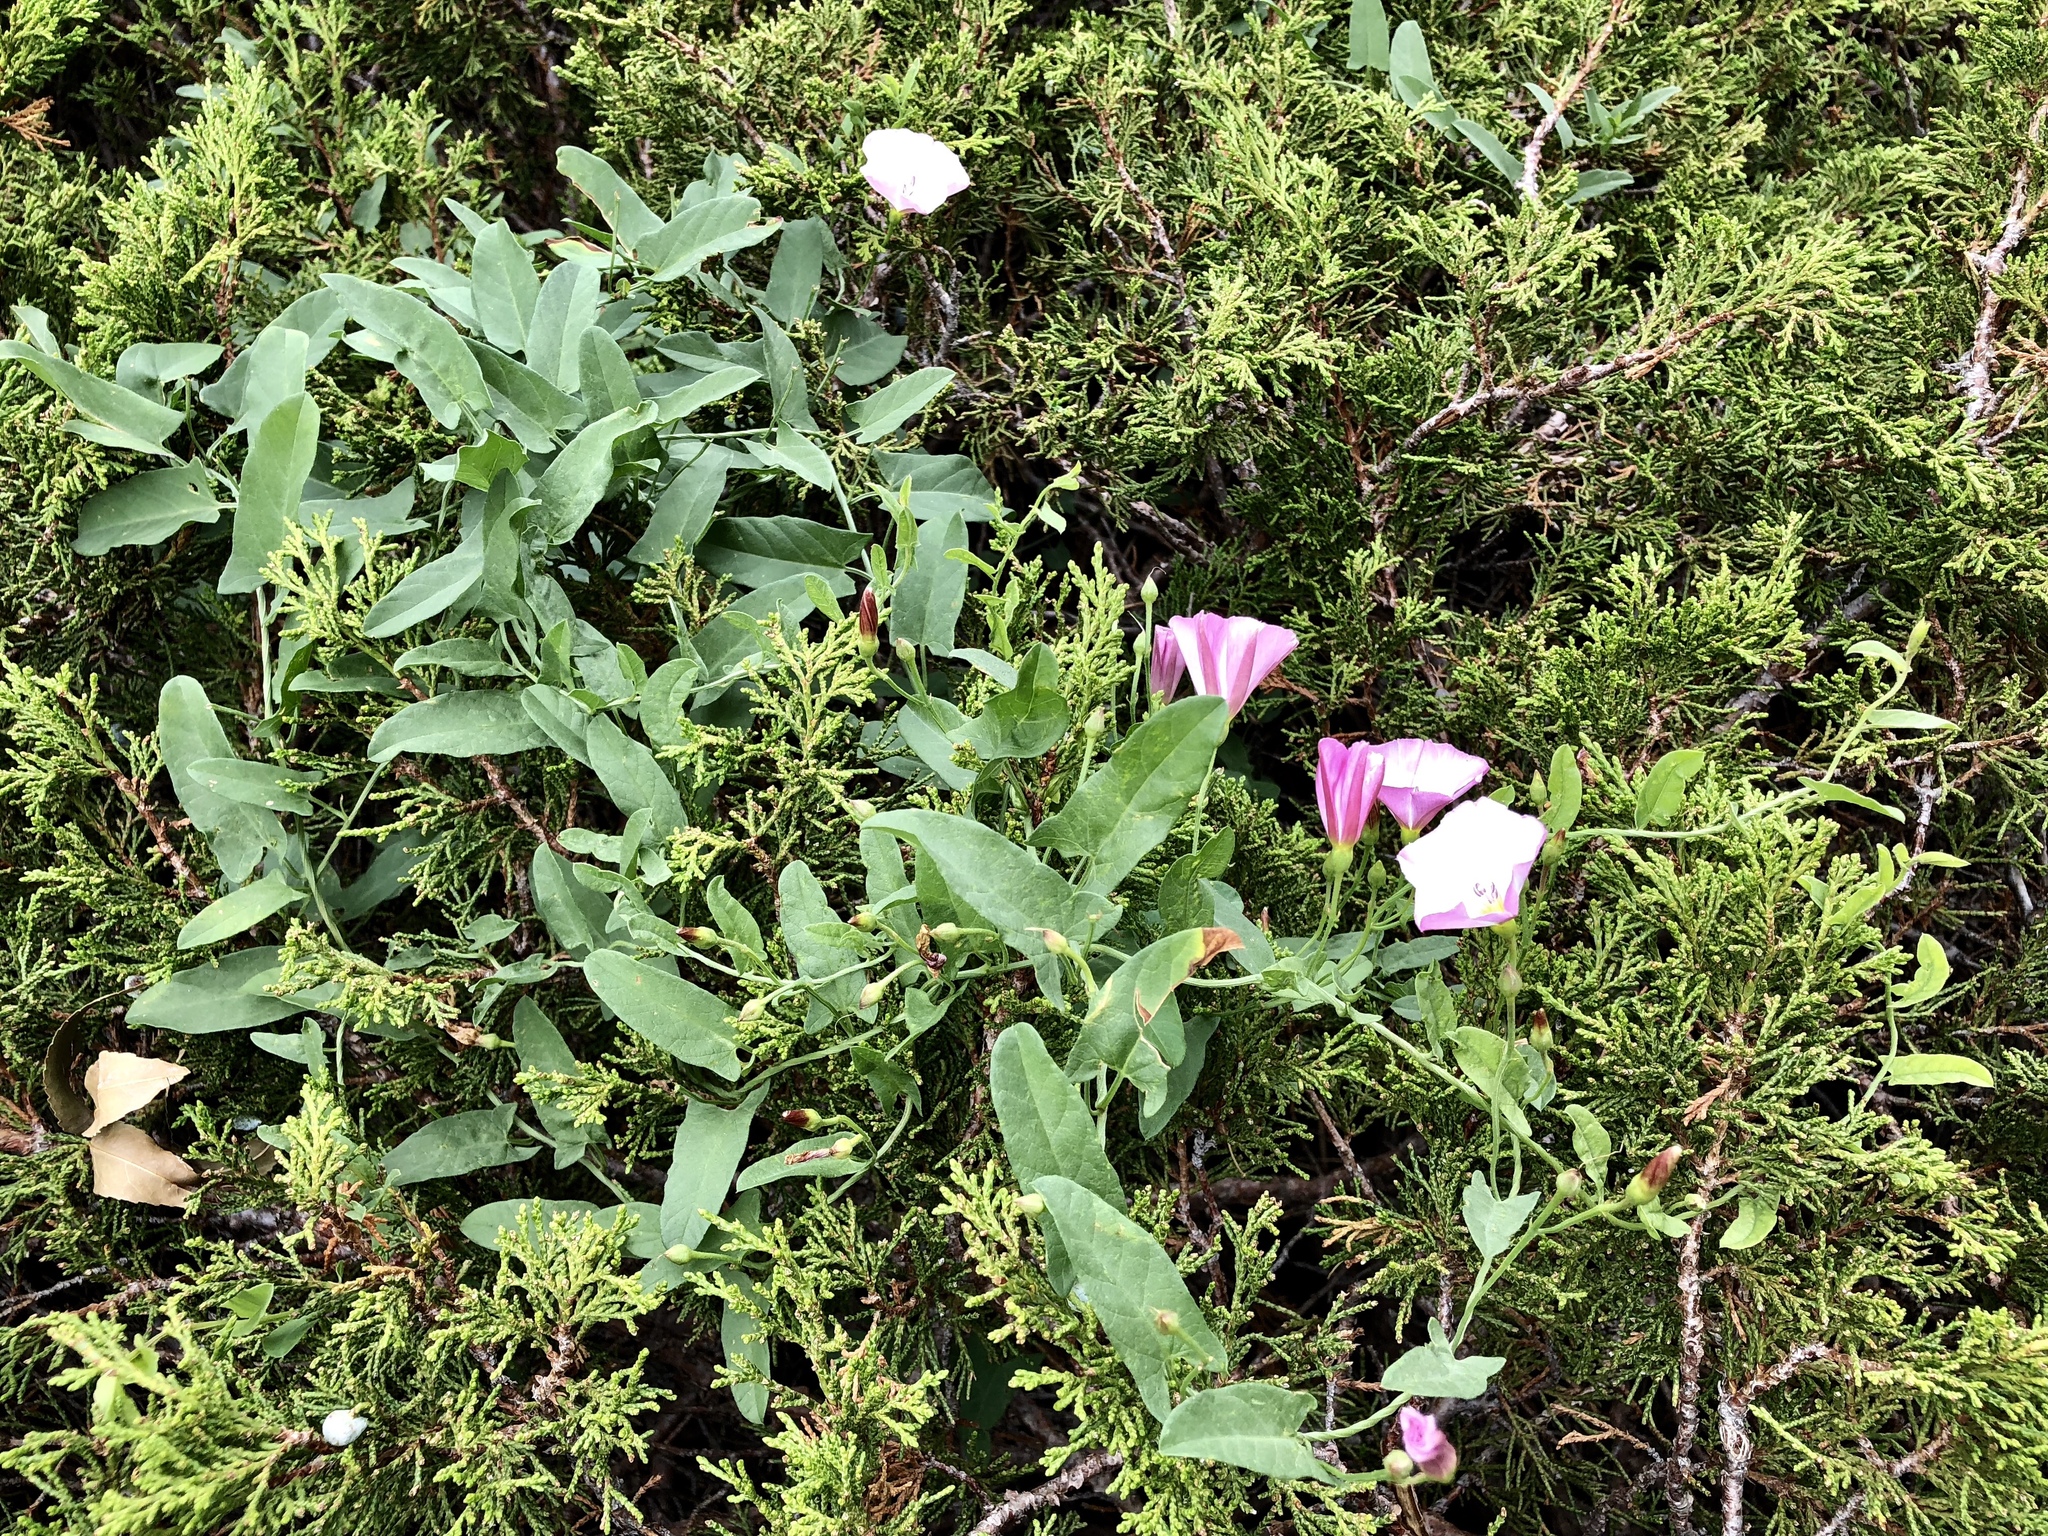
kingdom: Plantae
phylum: Tracheophyta
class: Magnoliopsida
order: Solanales
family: Convolvulaceae
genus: Convolvulus
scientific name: Convolvulus arvensis
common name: Field bindweed
